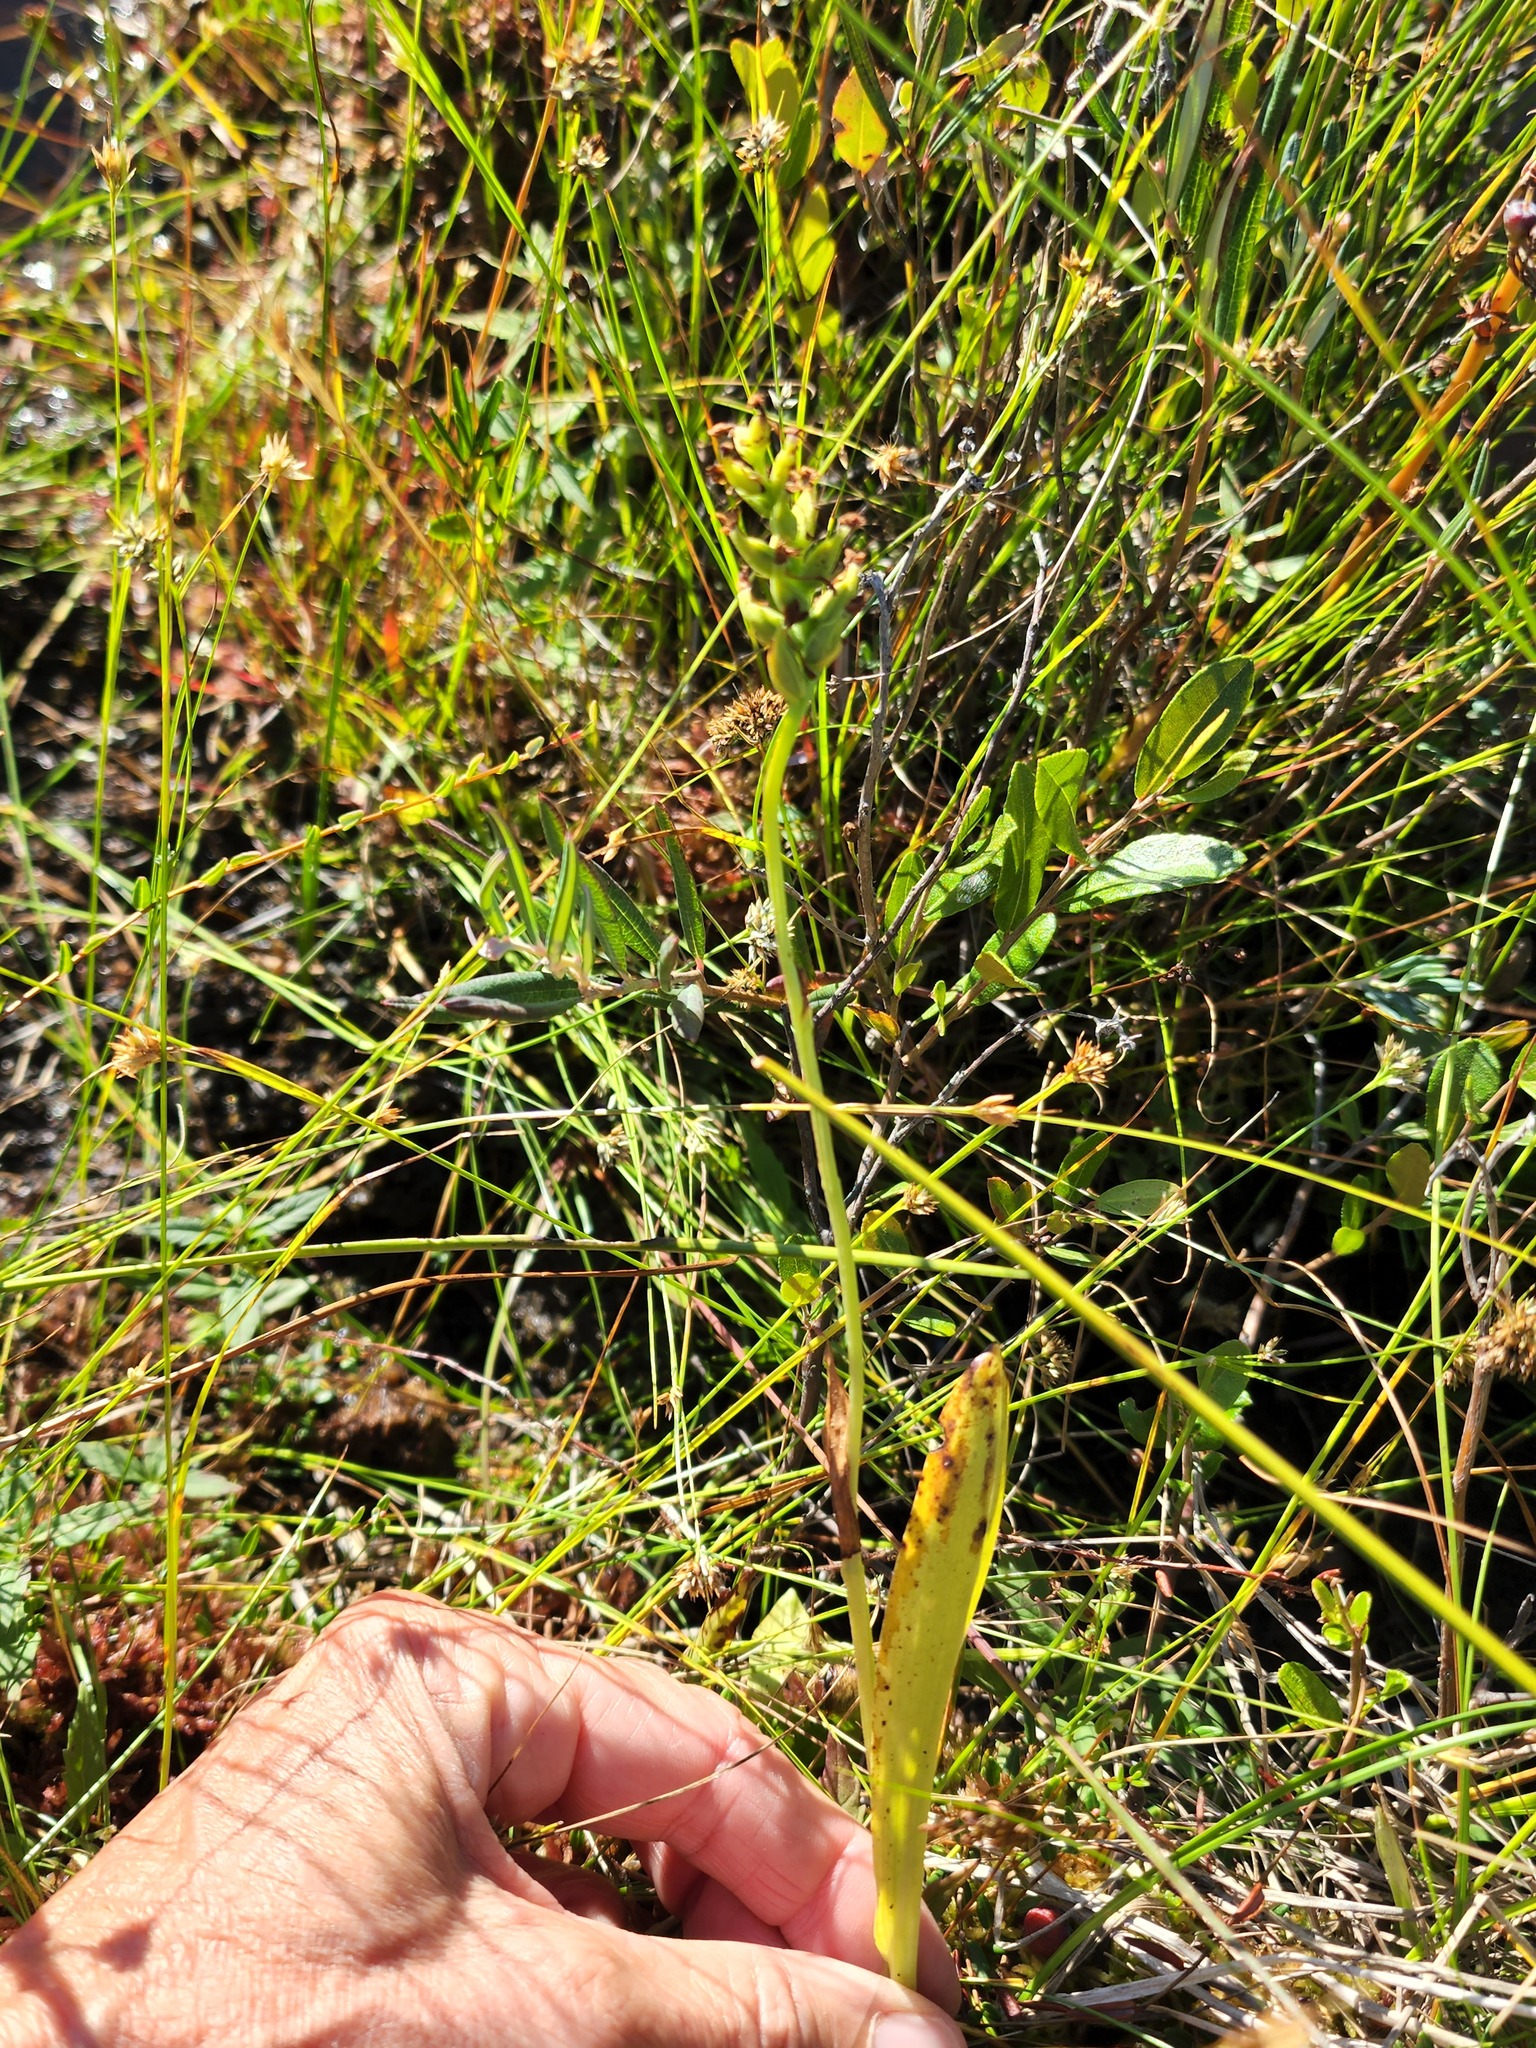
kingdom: Plantae
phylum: Tracheophyta
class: Liliopsida
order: Asparagales
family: Orchidaceae
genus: Platanthera
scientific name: Platanthera clavellata
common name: Club-spur orchid
